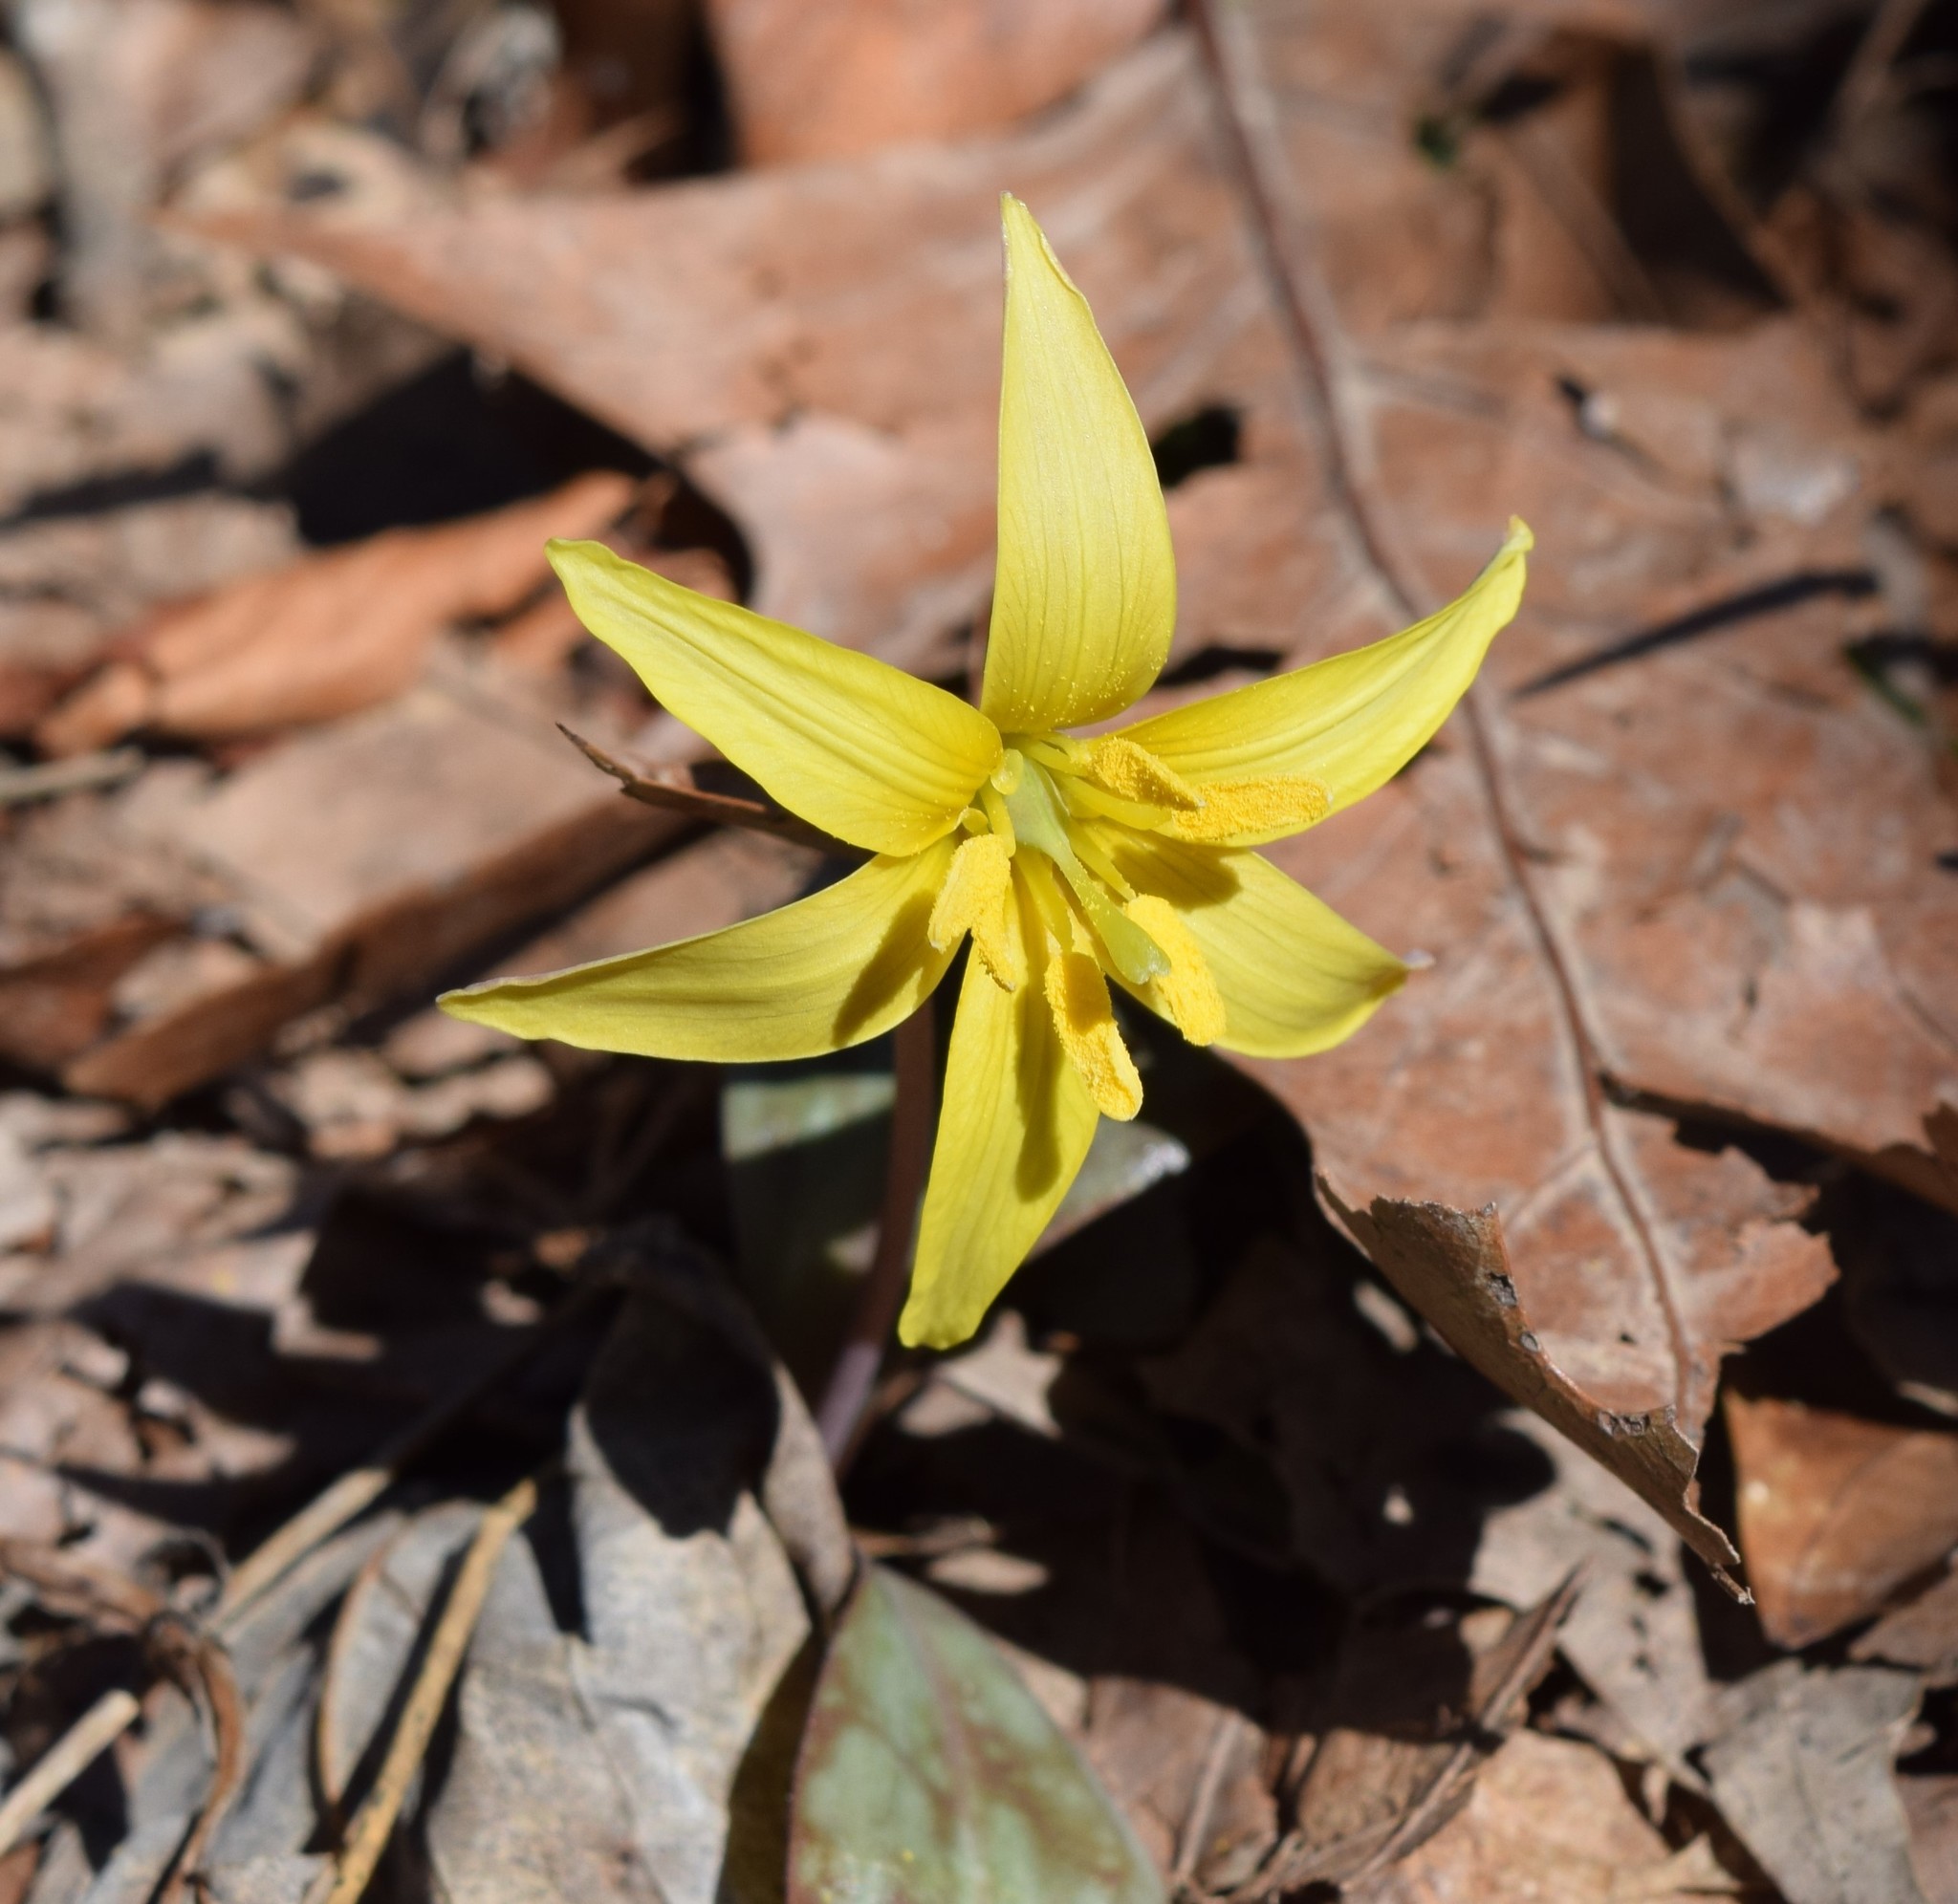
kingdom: Plantae
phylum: Tracheophyta
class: Liliopsida
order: Liliales
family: Liliaceae
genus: Erythronium
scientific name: Erythronium rostratum
